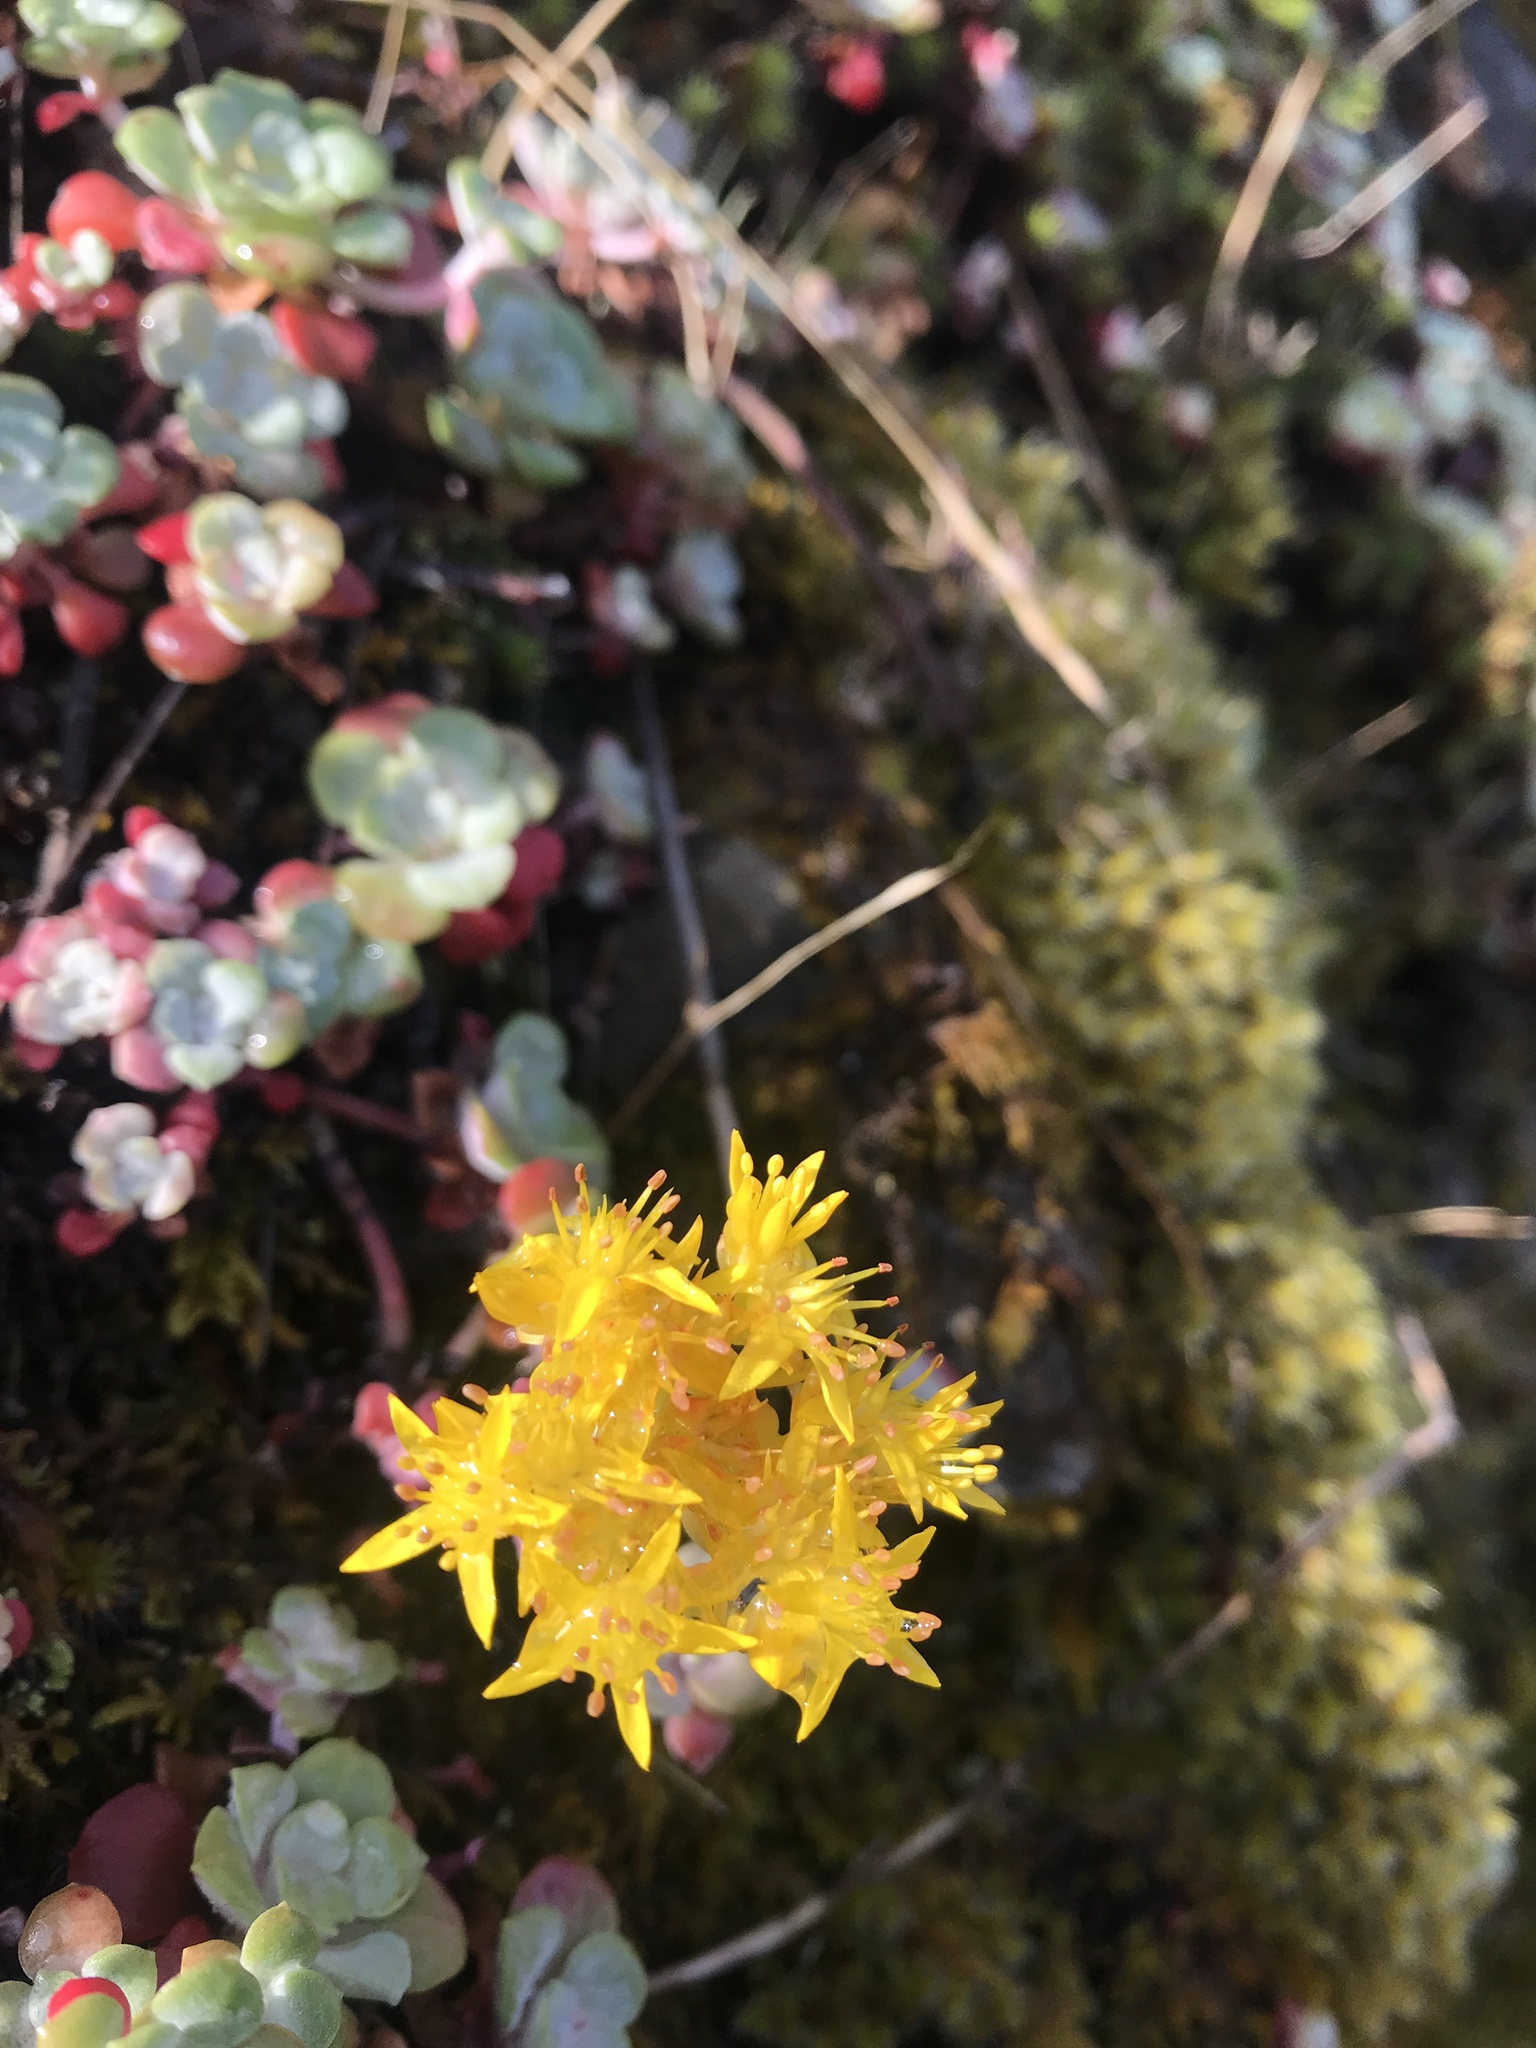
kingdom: Plantae
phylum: Tracheophyta
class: Magnoliopsida
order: Saxifragales
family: Crassulaceae
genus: Sedum
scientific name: Sedum spathulifolium
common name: Colorado stonecrop
